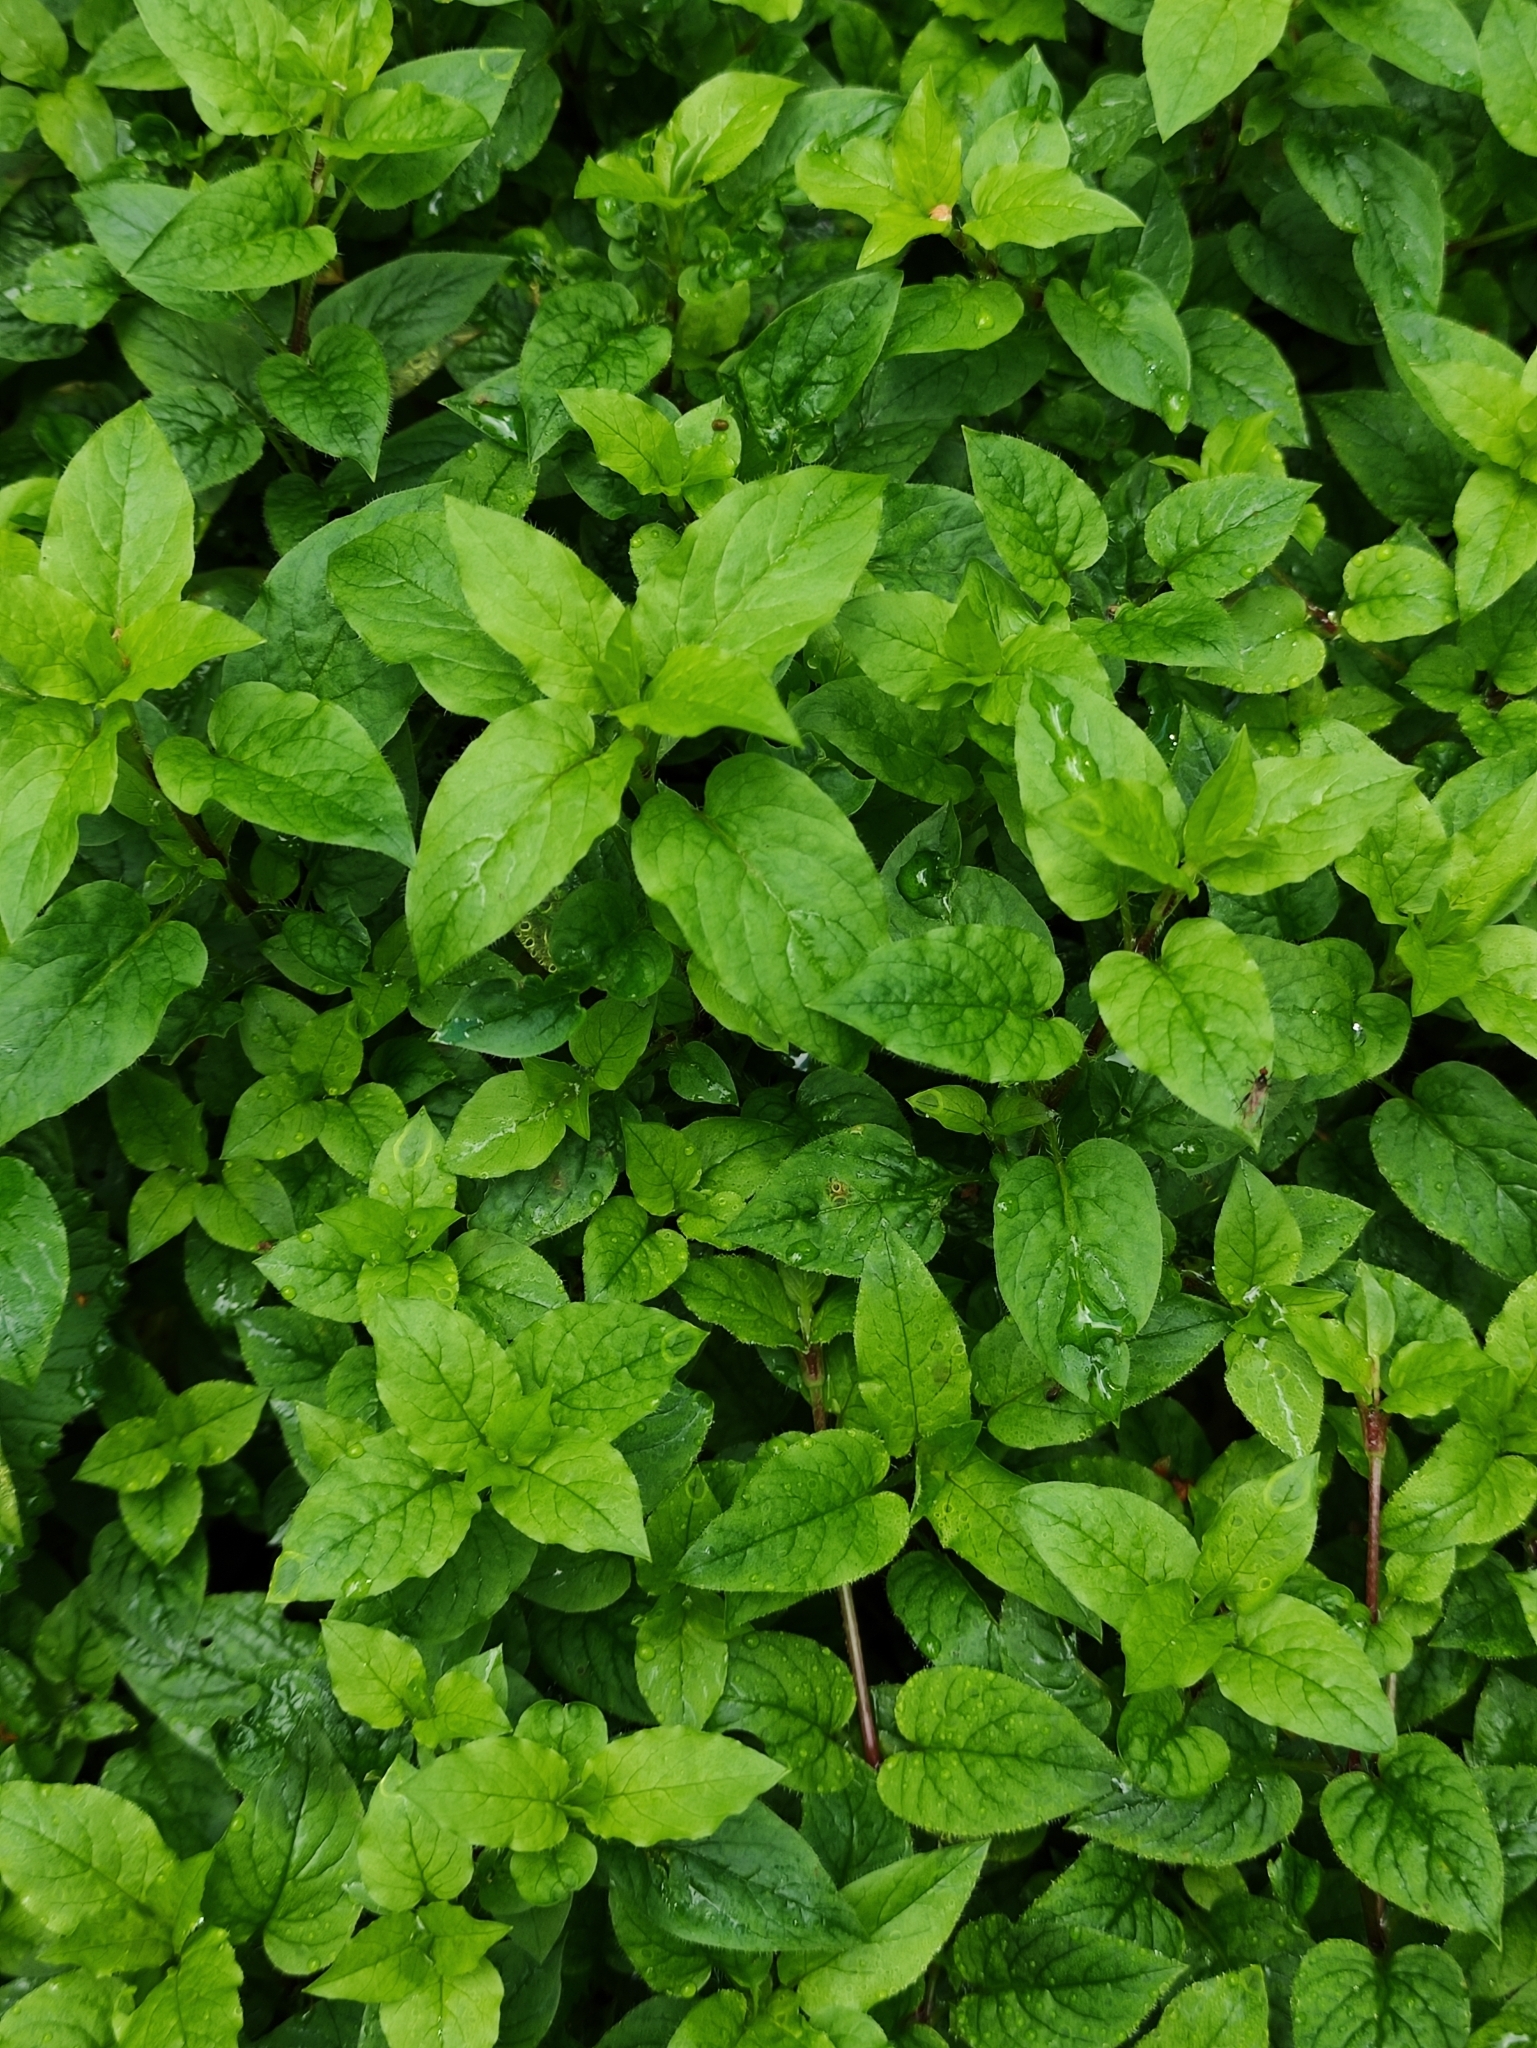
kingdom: Plantae
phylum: Tracheophyta
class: Magnoliopsida
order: Caryophyllales
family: Caryophyllaceae
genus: Stellaria
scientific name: Stellaria nemorum
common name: Wood stitchwort
